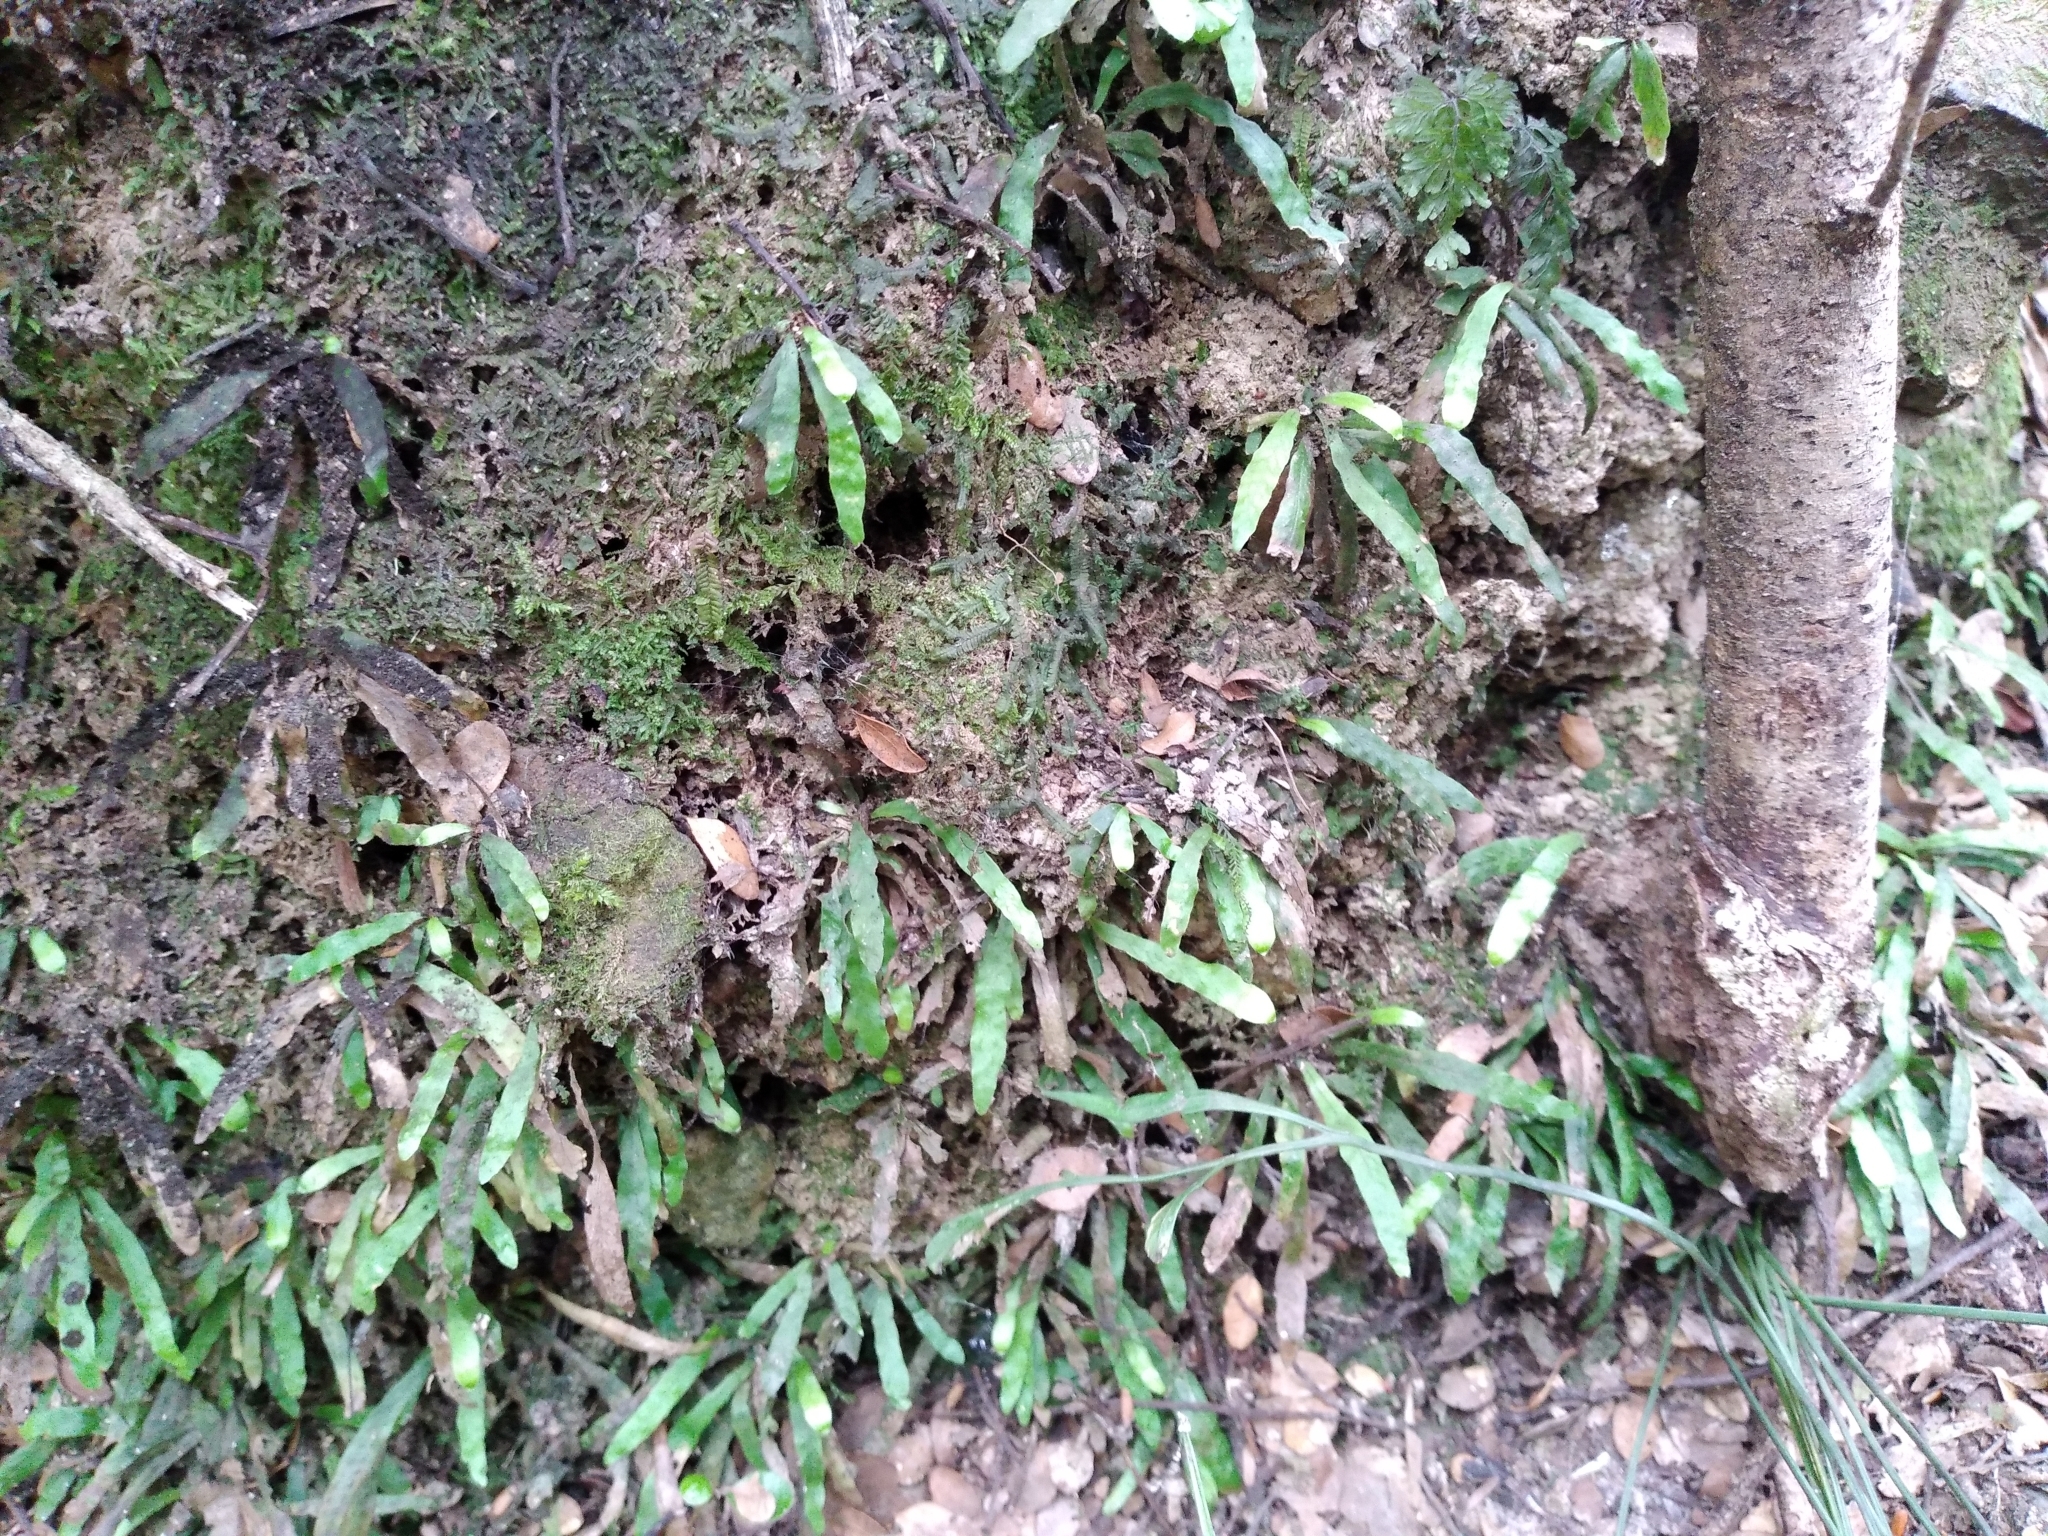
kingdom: Plantae
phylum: Tracheophyta
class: Polypodiopsida
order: Polypodiales
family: Polypodiaceae
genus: Notogrammitis
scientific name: Notogrammitis ciliata
